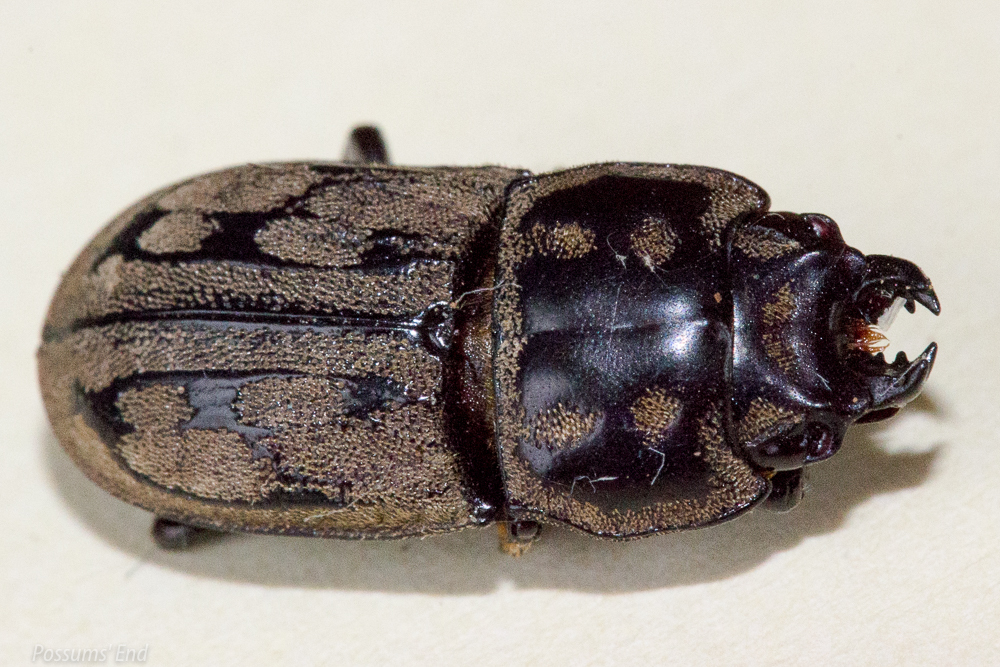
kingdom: Animalia
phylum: Arthropoda
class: Insecta
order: Coleoptera
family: Lucanidae
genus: Paralissotes
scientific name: Paralissotes reticulatus
